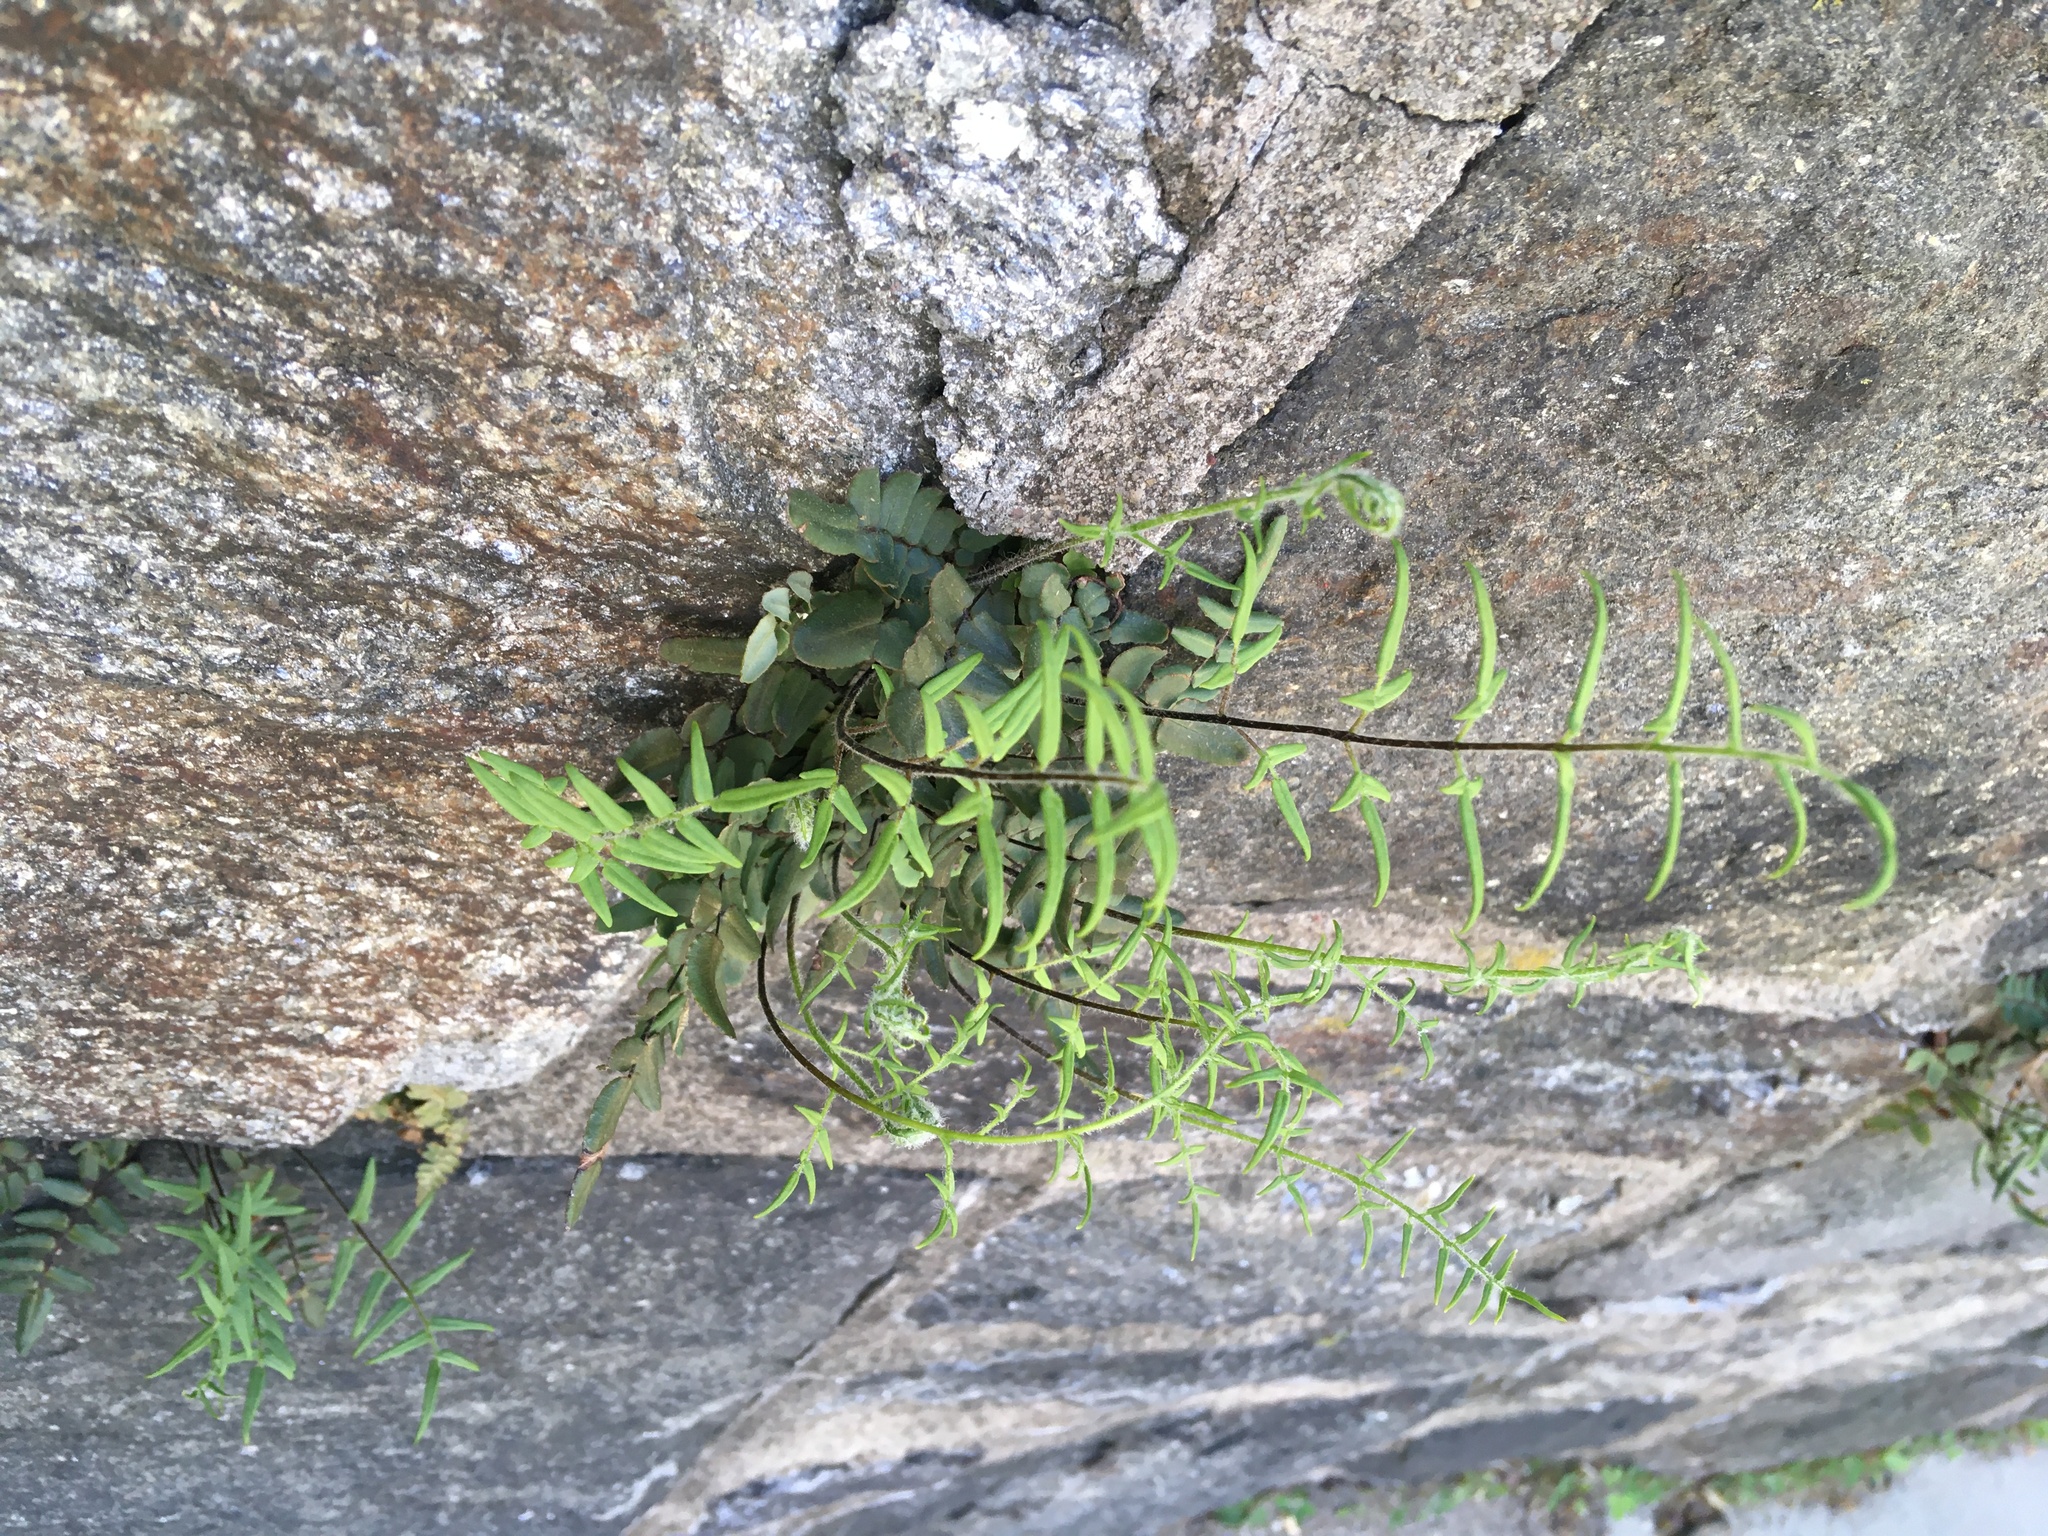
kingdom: Plantae
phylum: Tracheophyta
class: Polypodiopsida
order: Polypodiales
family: Pteridaceae
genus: Pellaea
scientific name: Pellaea atropurpurea
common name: Hairy cliffbrake
